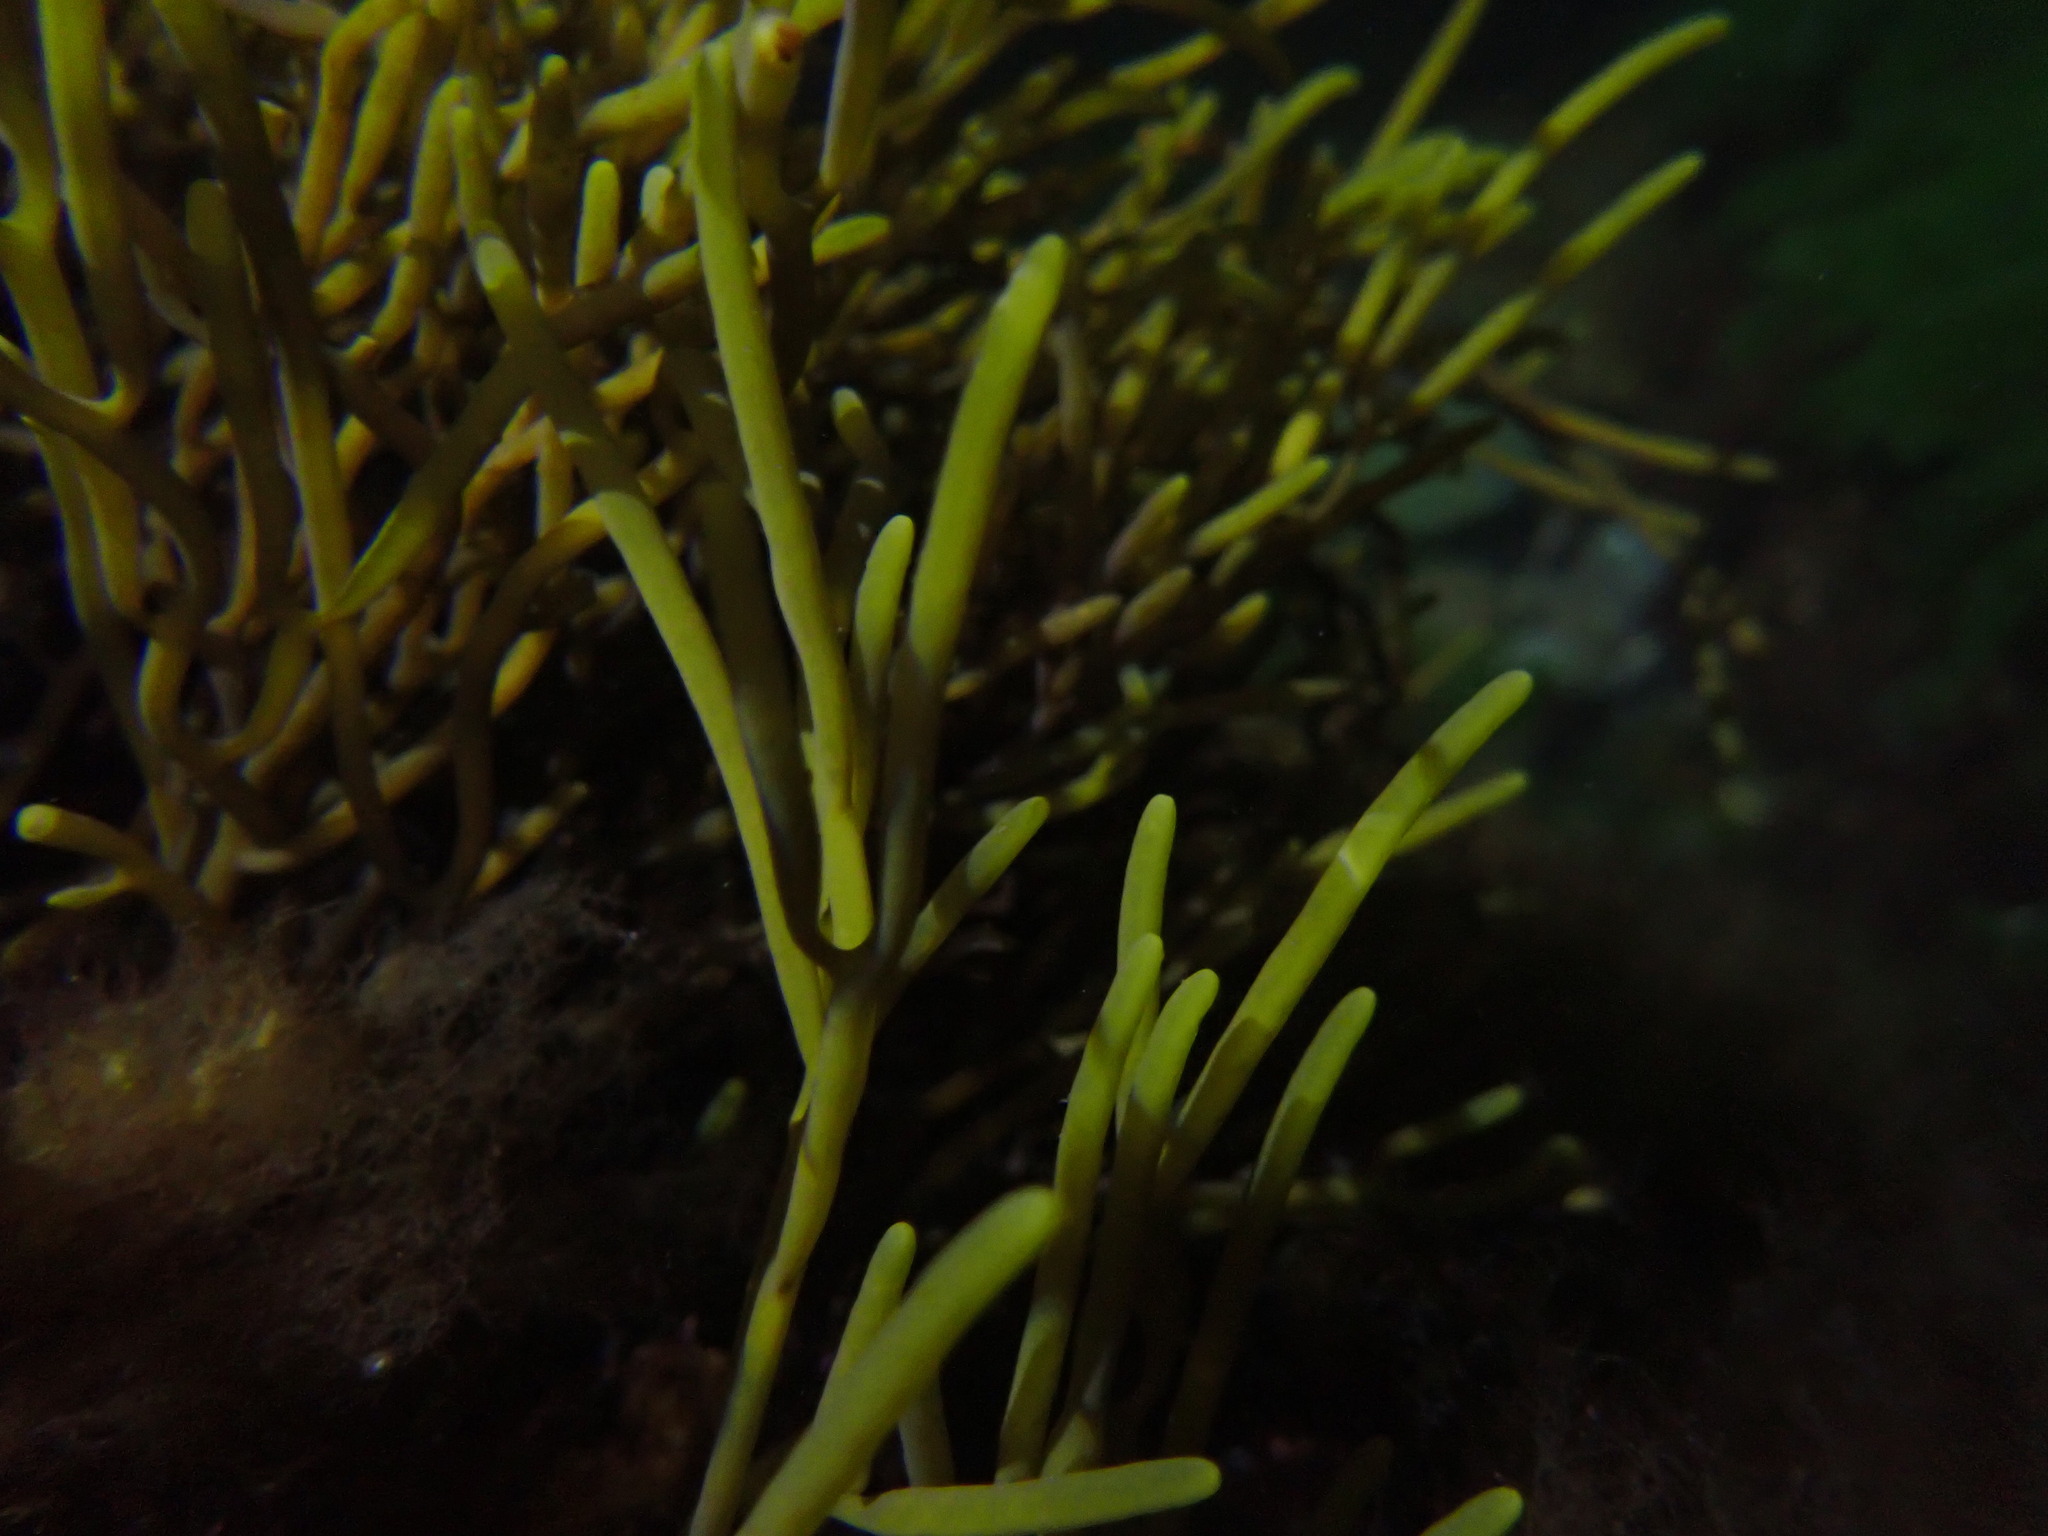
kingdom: Chromista
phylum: Ochrophyta
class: Phaeophyceae
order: Fucales
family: Sargassaceae
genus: Bifurcaria
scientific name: Bifurcaria bifurcata
